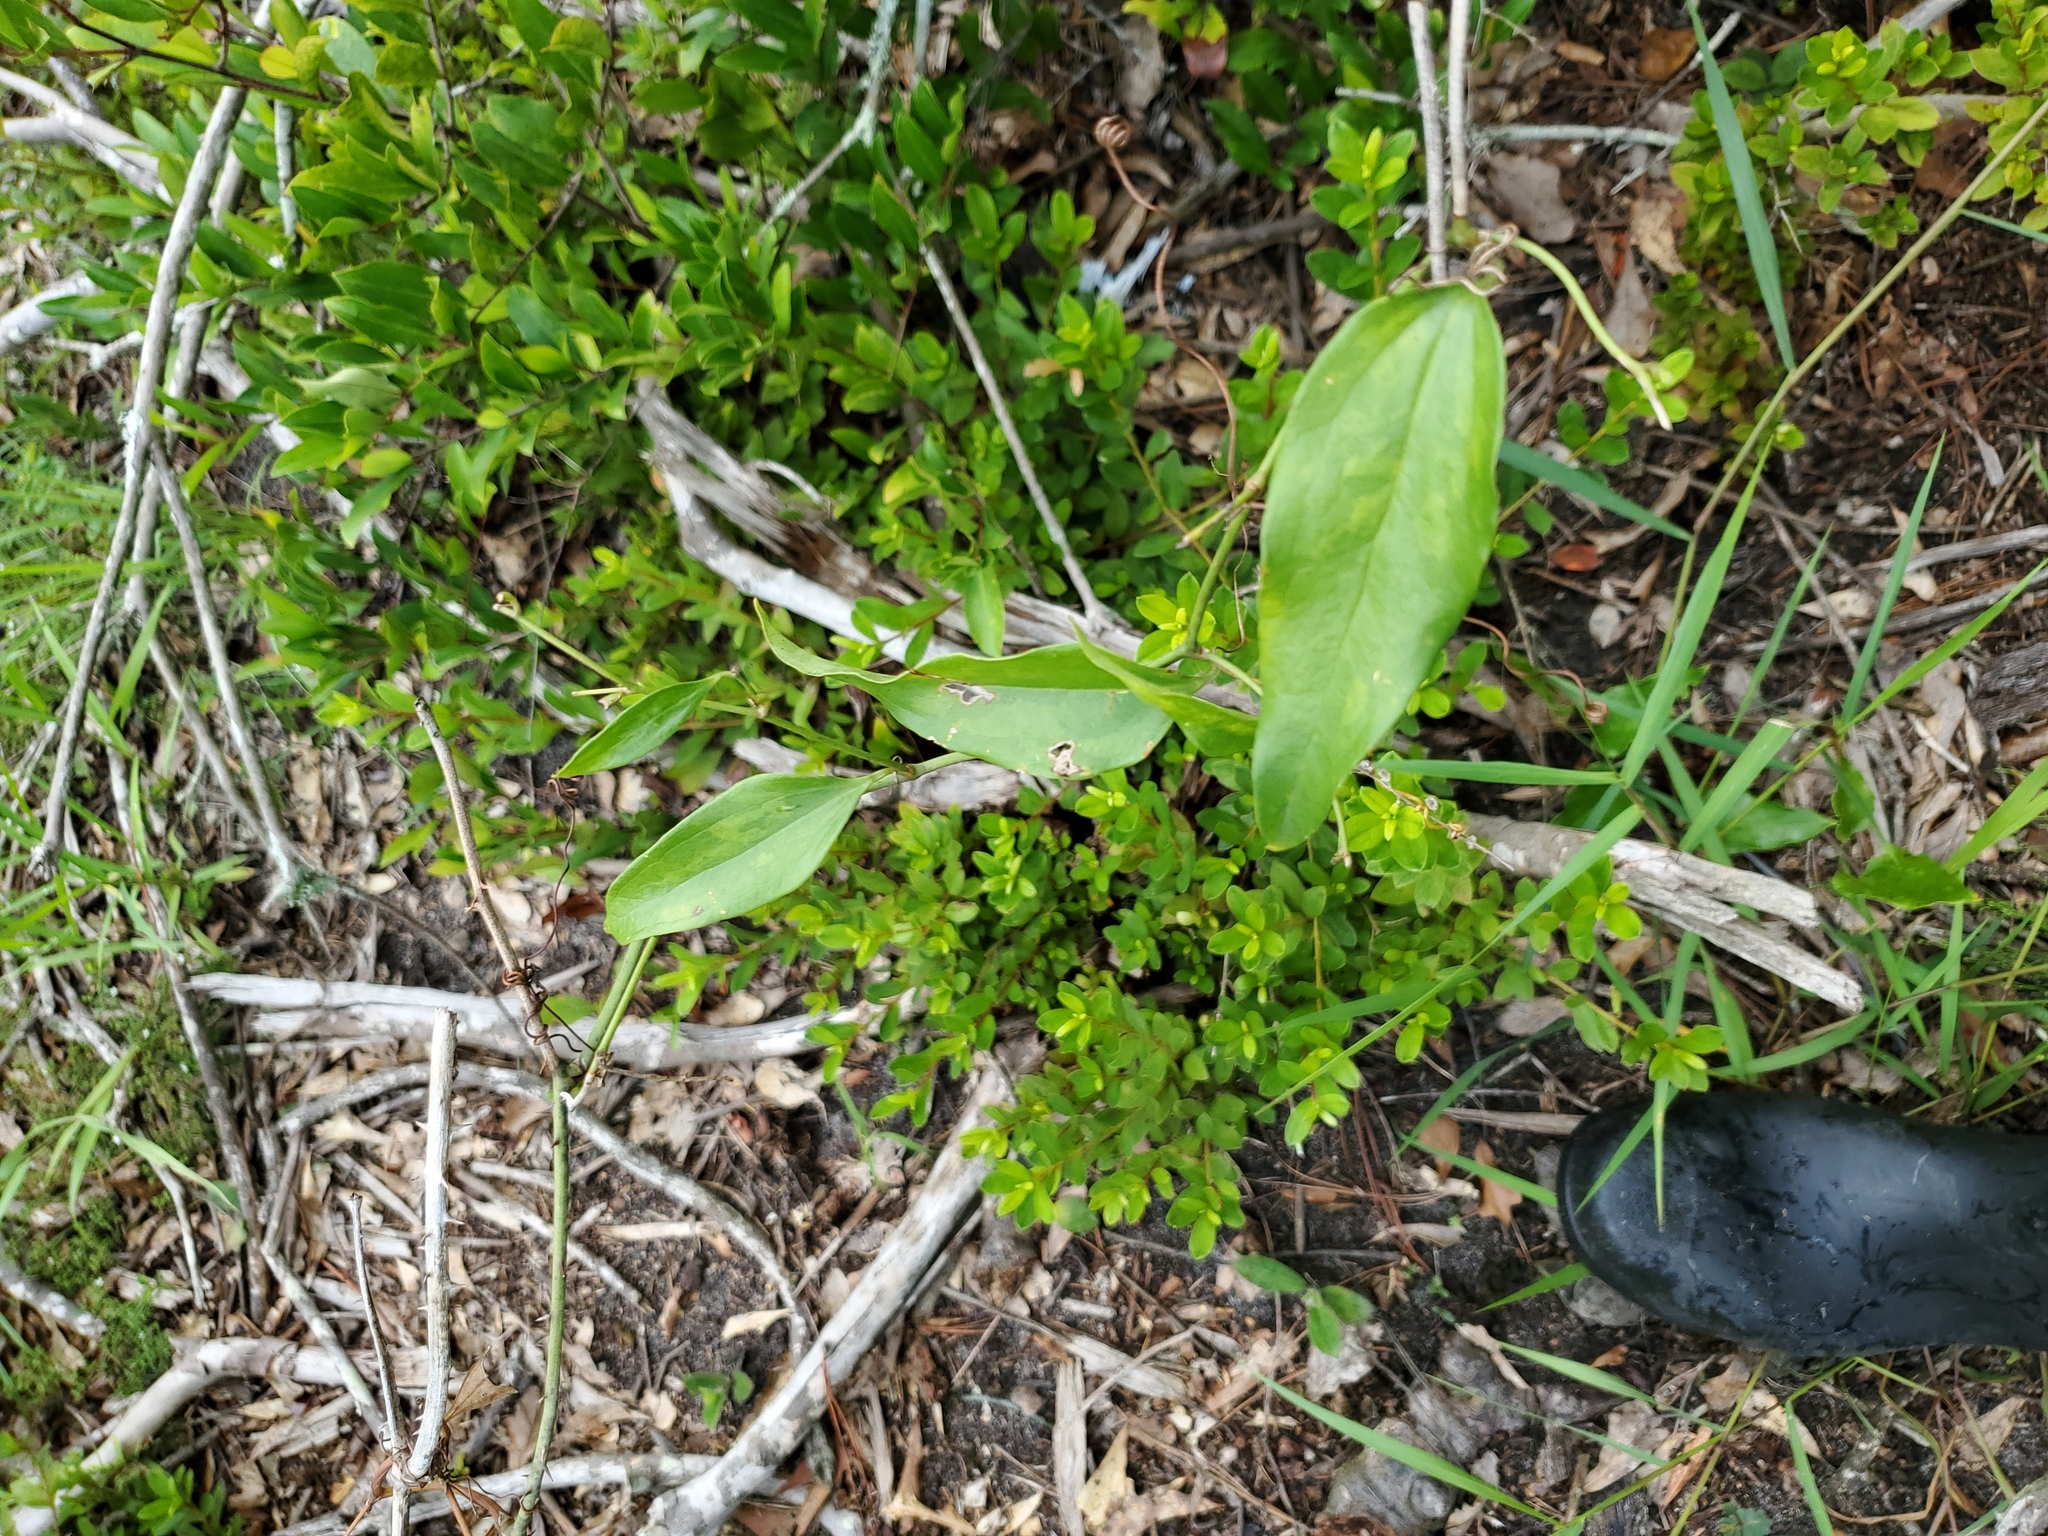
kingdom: Plantae
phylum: Tracheophyta
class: Liliopsida
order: Liliales
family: Smilacaceae
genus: Smilax
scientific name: Smilax maritima
